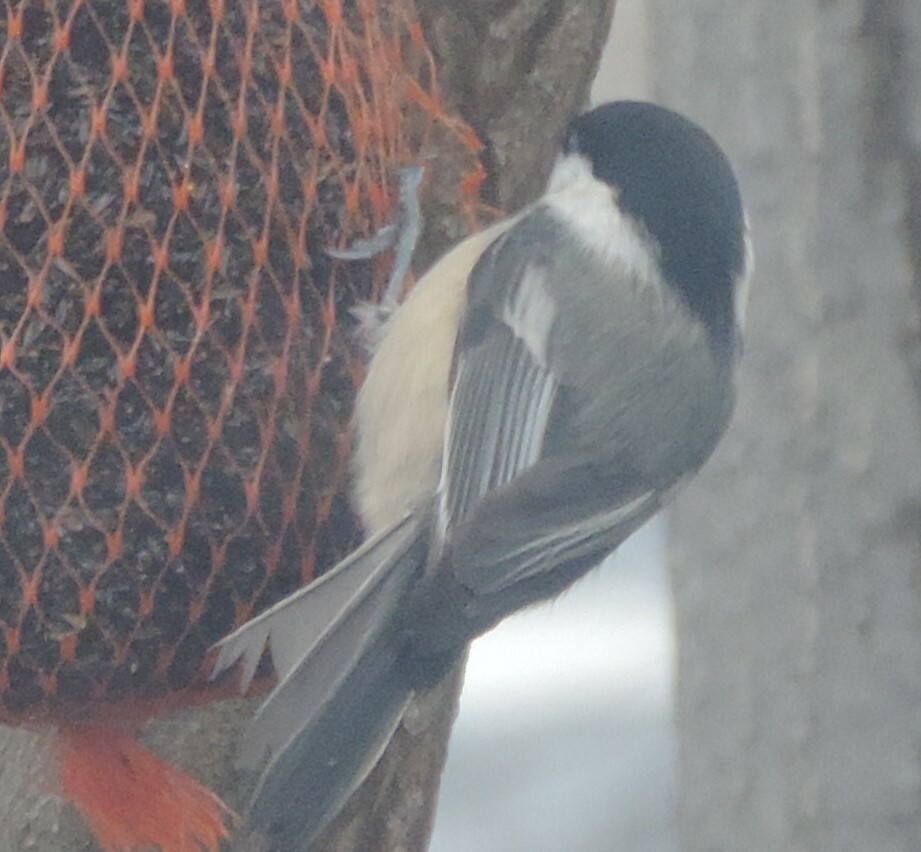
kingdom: Animalia
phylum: Chordata
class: Aves
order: Passeriformes
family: Paridae
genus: Poecile
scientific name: Poecile atricapillus
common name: Black-capped chickadee
